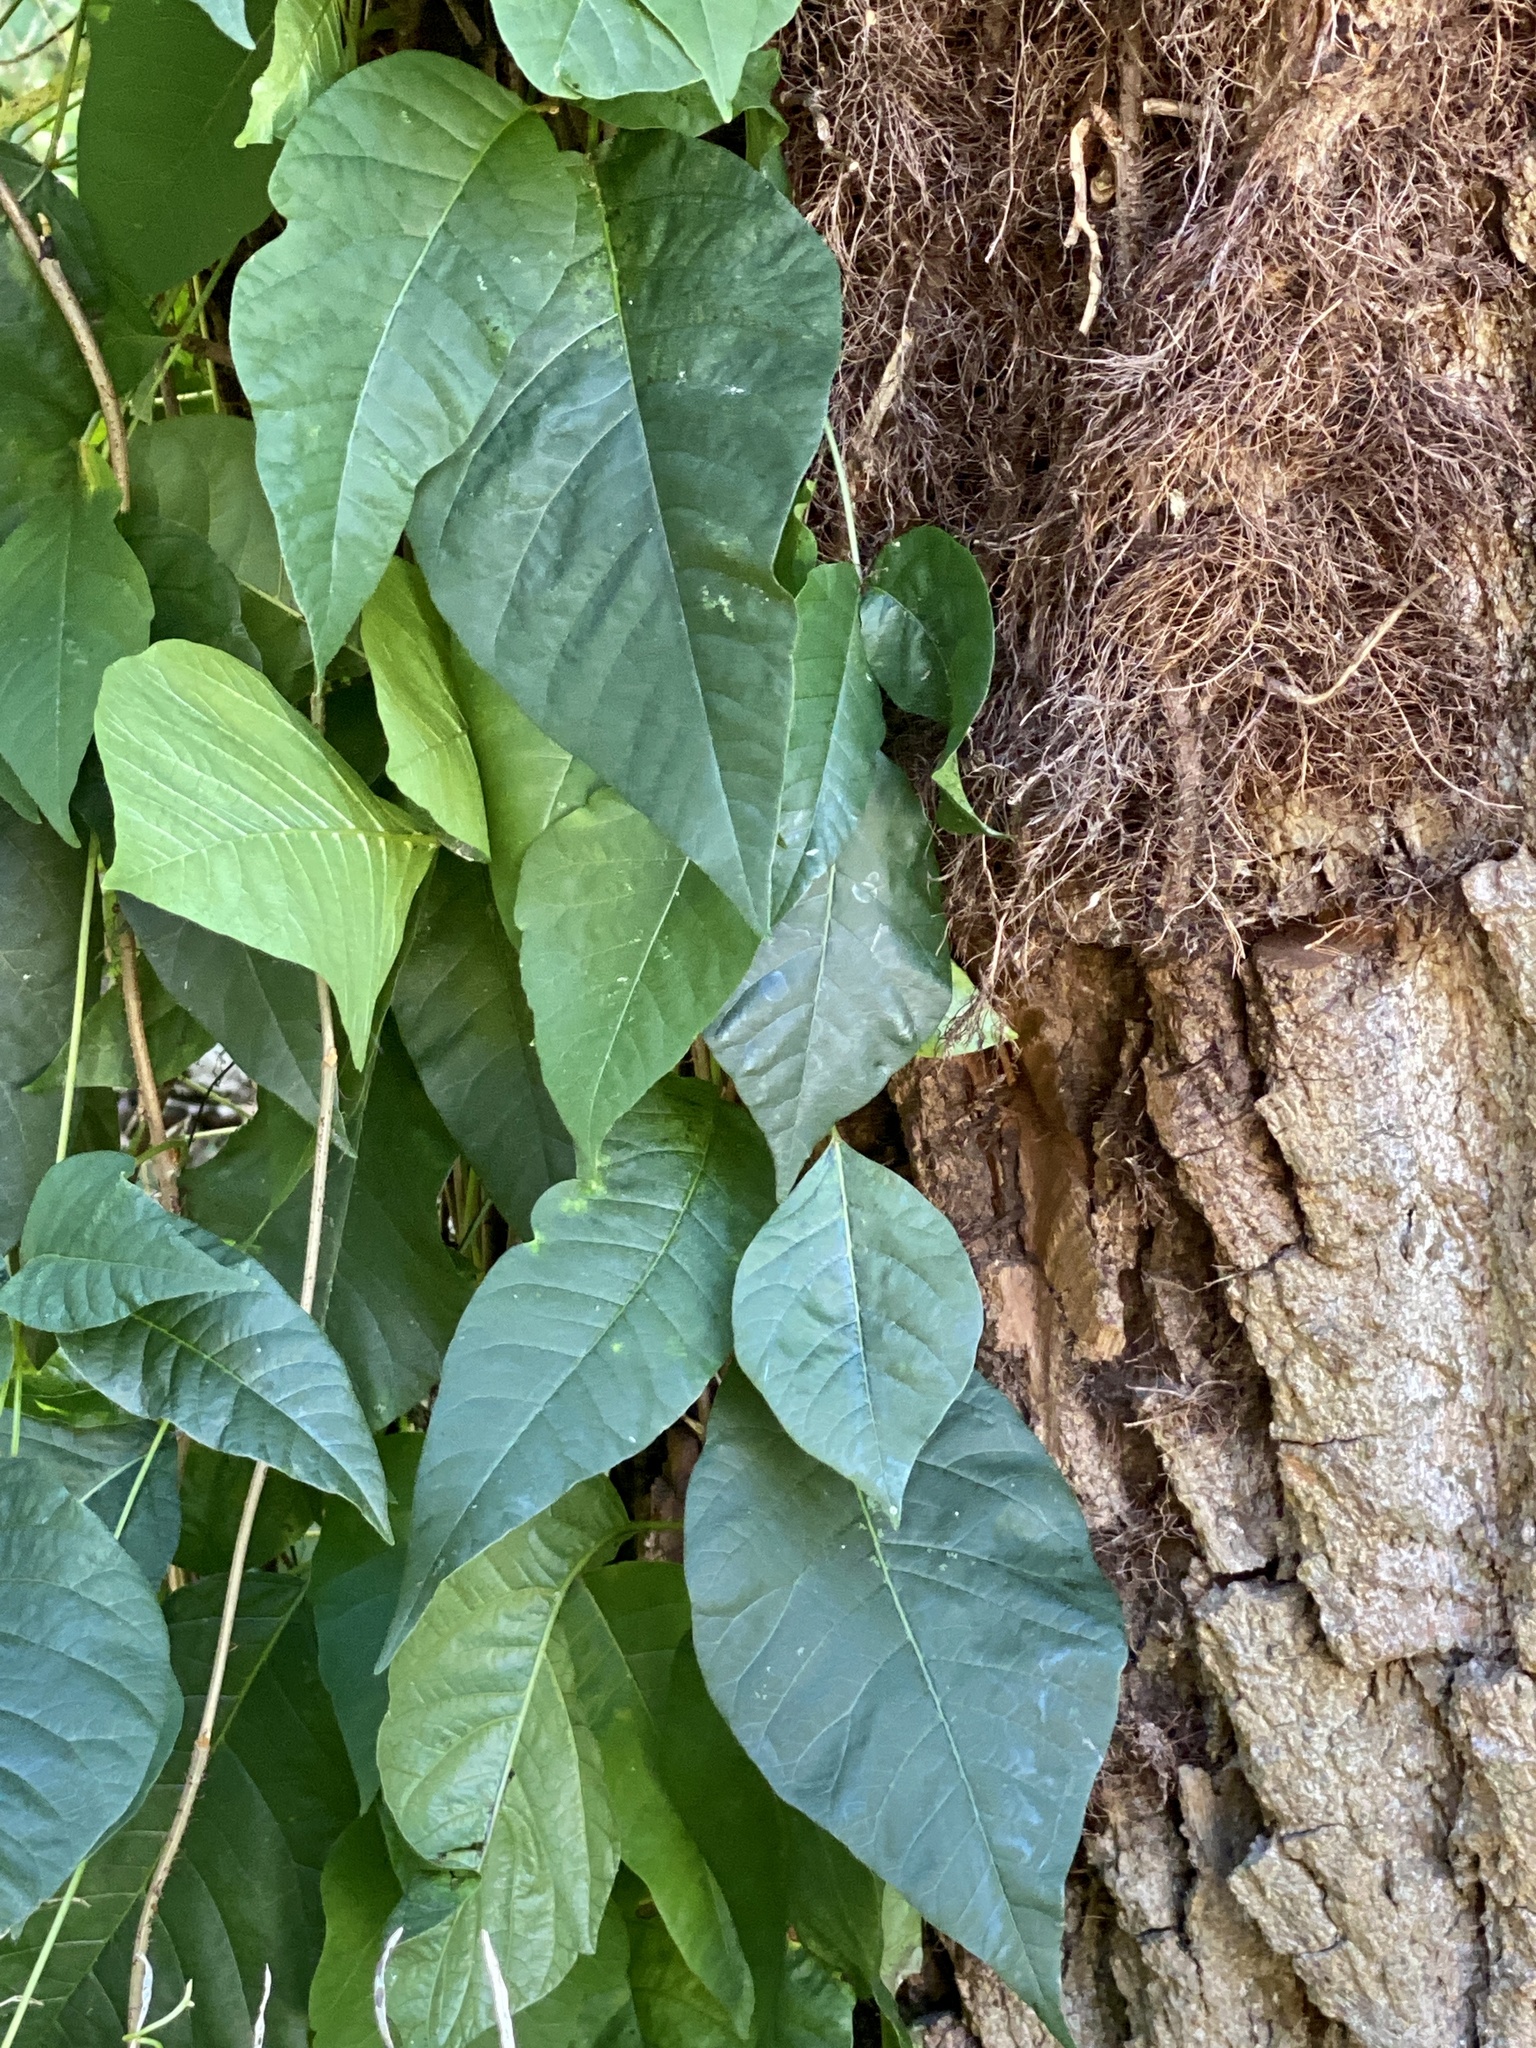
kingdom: Plantae
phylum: Tracheophyta
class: Magnoliopsida
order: Sapindales
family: Anacardiaceae
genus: Toxicodendron
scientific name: Toxicodendron radicans
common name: Poison ivy
